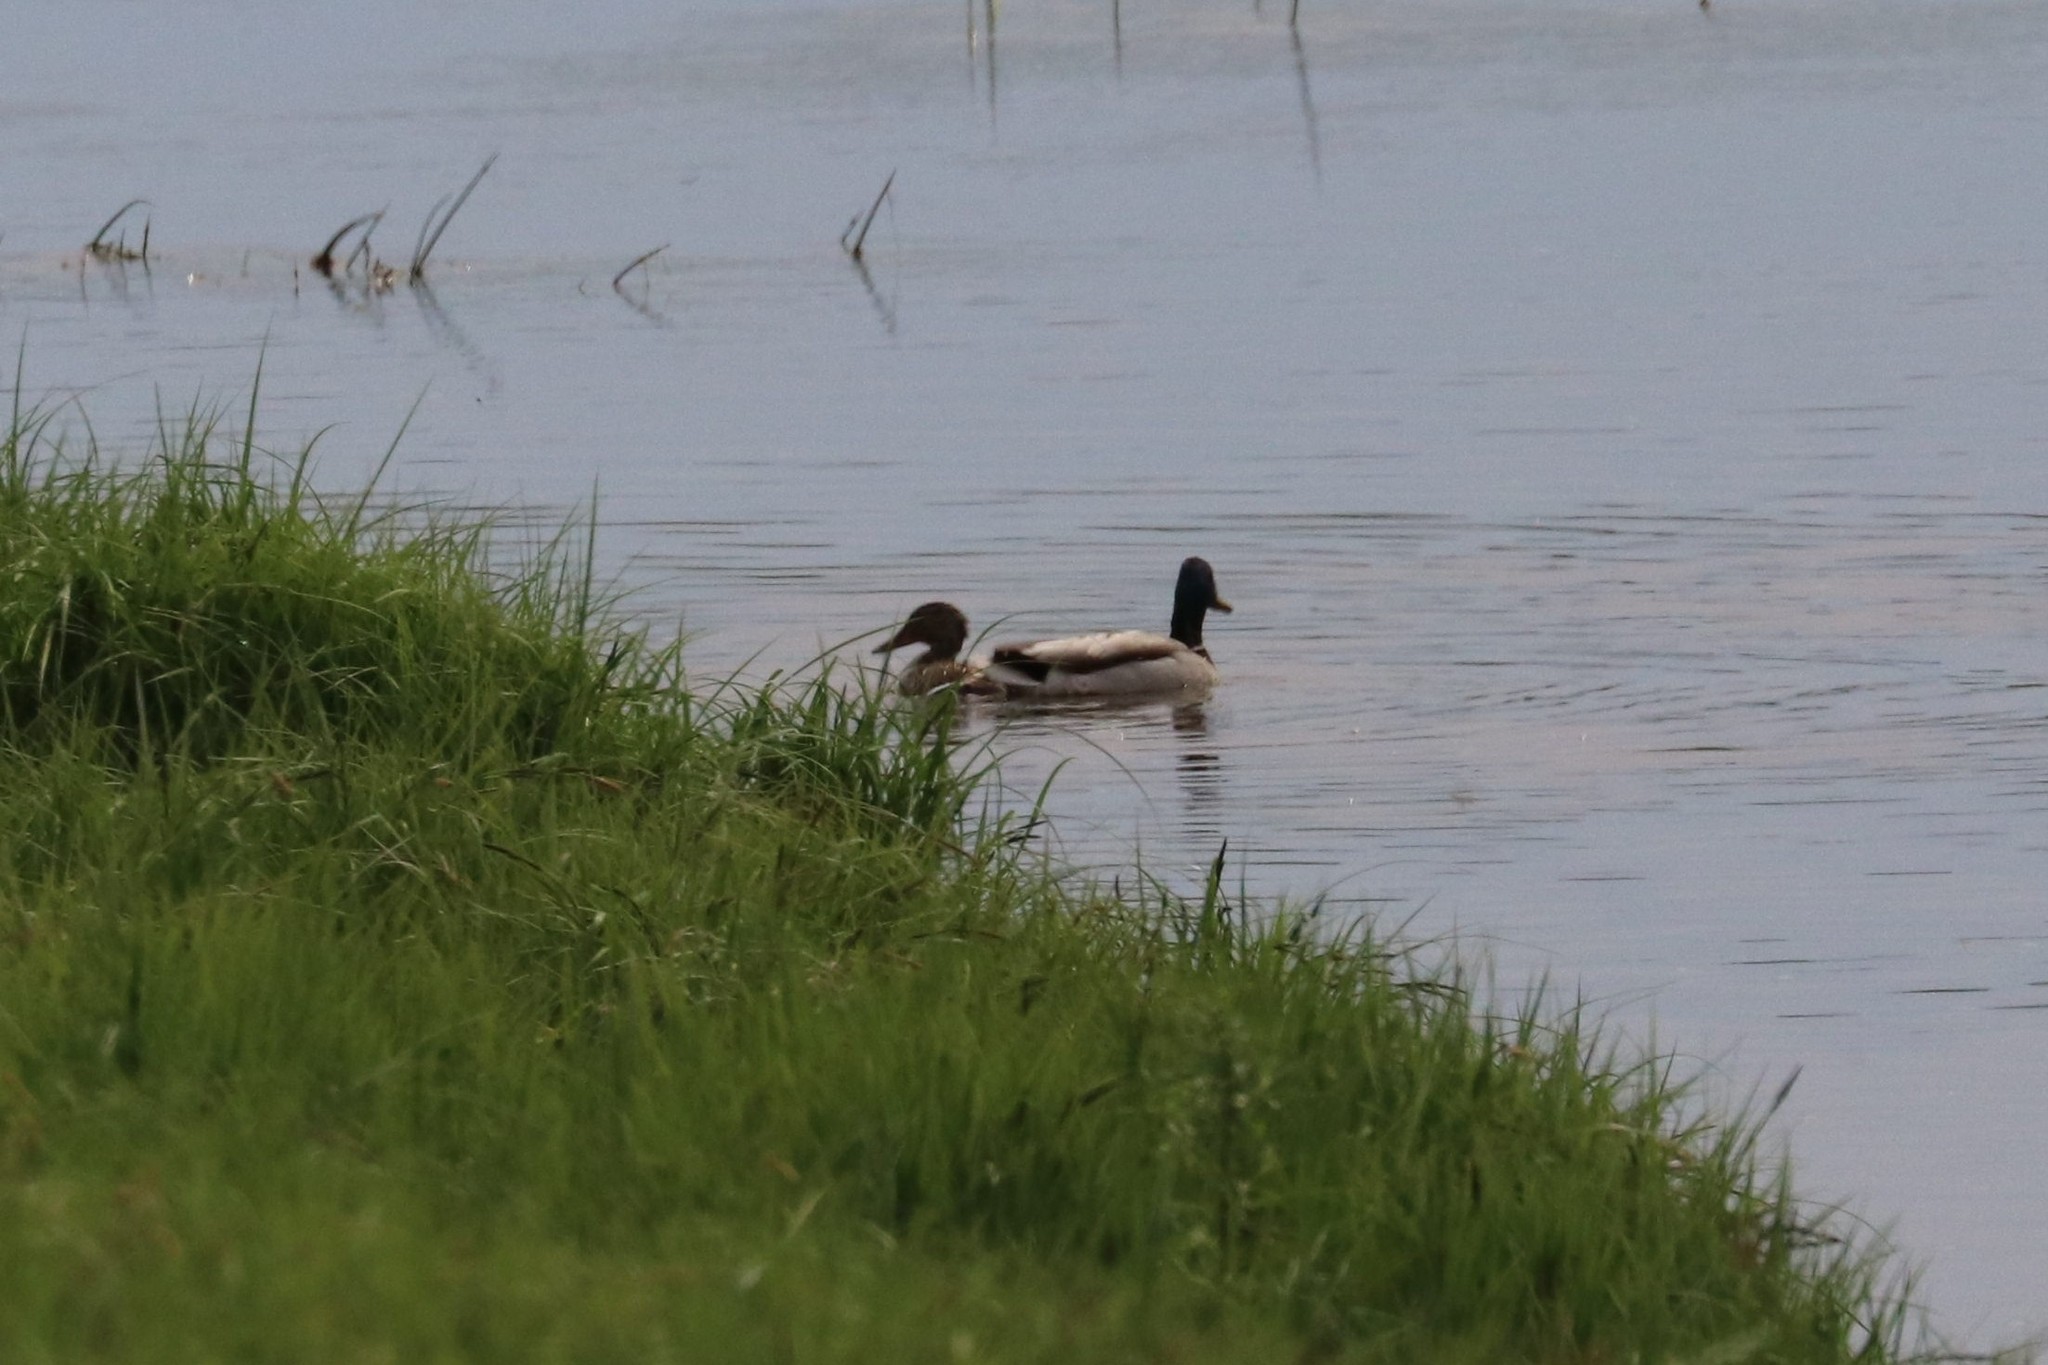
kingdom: Animalia
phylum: Chordata
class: Aves
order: Anseriformes
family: Anatidae
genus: Anas
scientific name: Anas platyrhynchos
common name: Mallard
